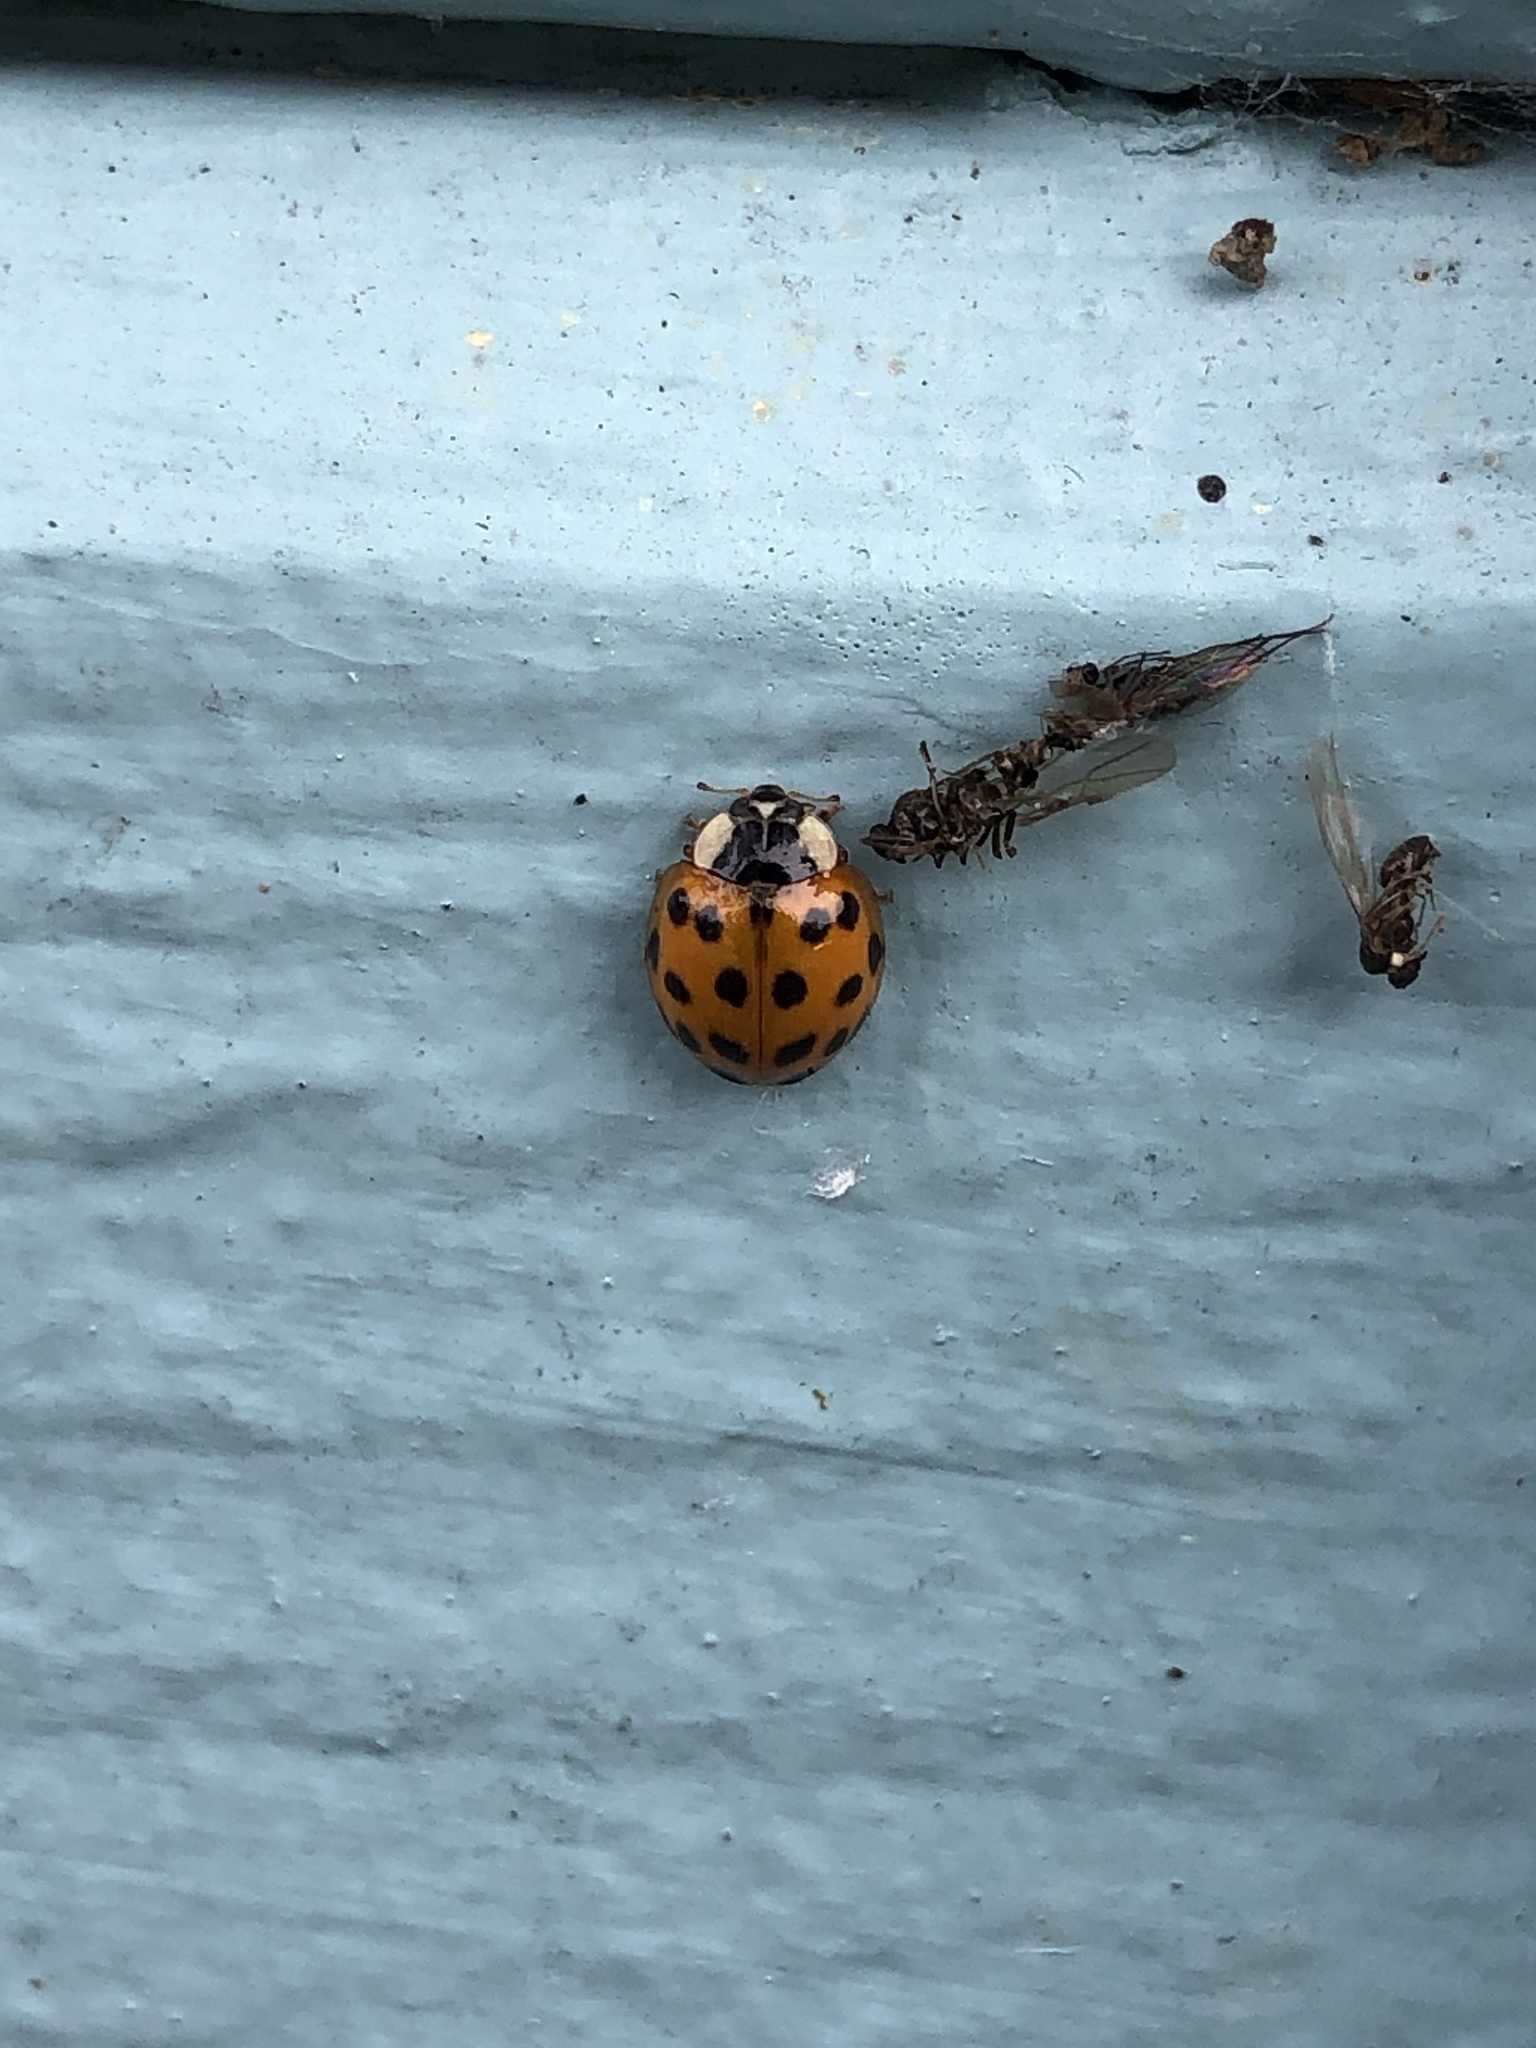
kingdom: Animalia
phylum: Arthropoda
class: Insecta
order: Coleoptera
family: Coccinellidae
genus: Harmonia
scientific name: Harmonia axyridis
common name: Harlequin ladybird
